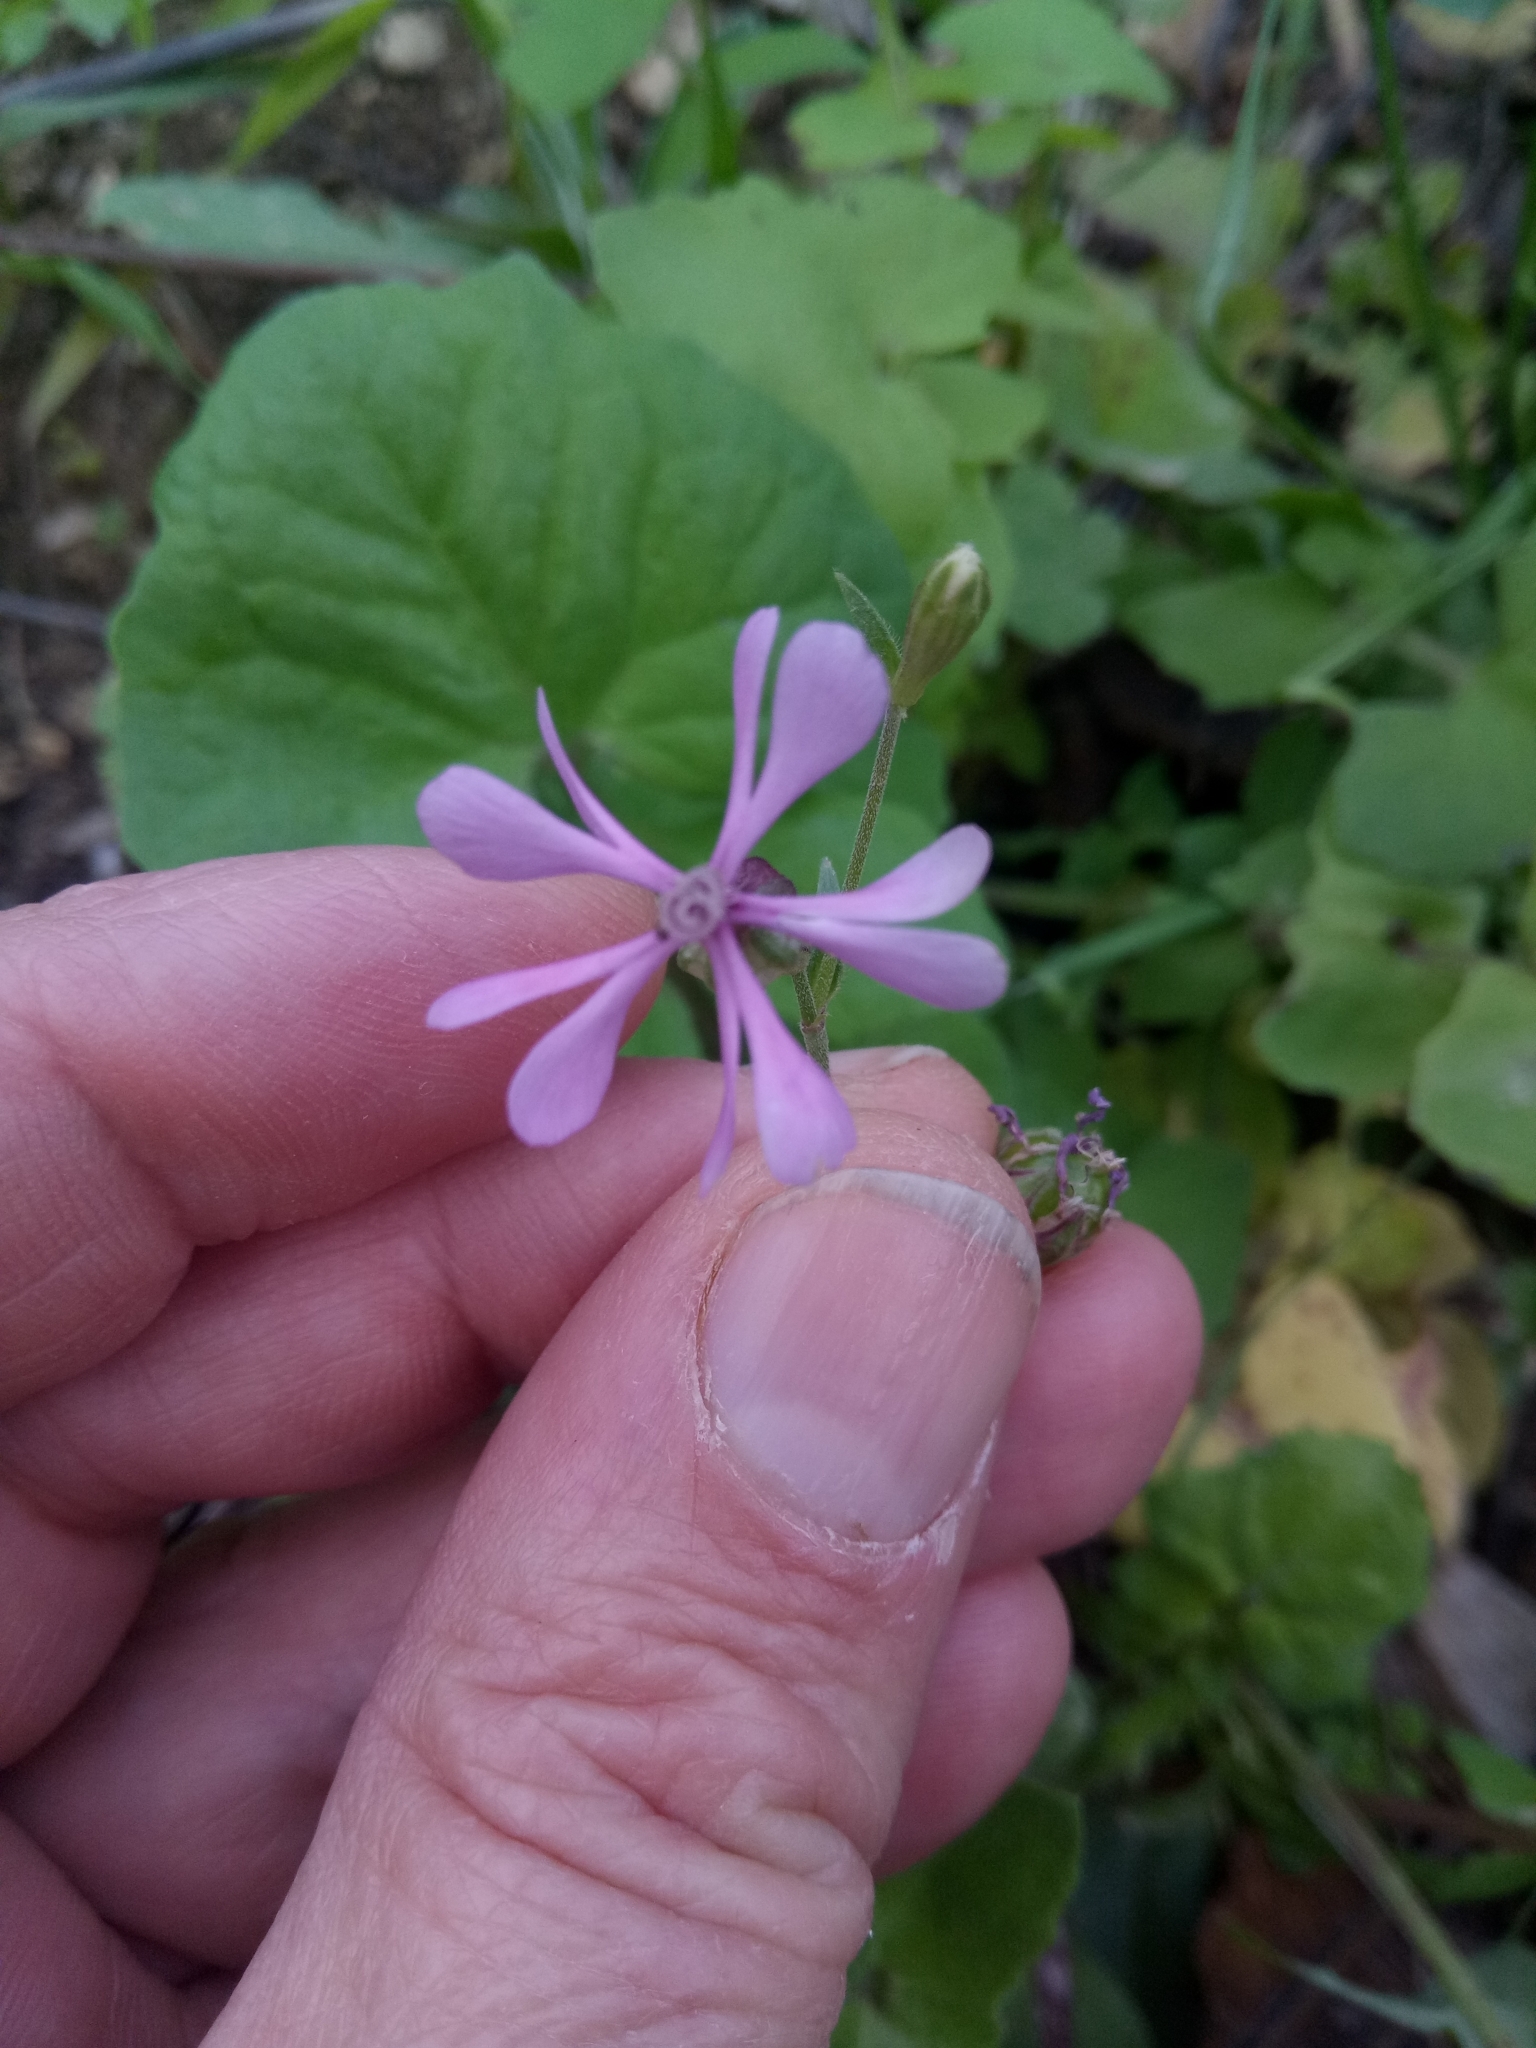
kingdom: Plantae
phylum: Tracheophyta
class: Magnoliopsida
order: Caryophyllales
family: Caryophyllaceae
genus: Silene
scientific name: Silene colorata
